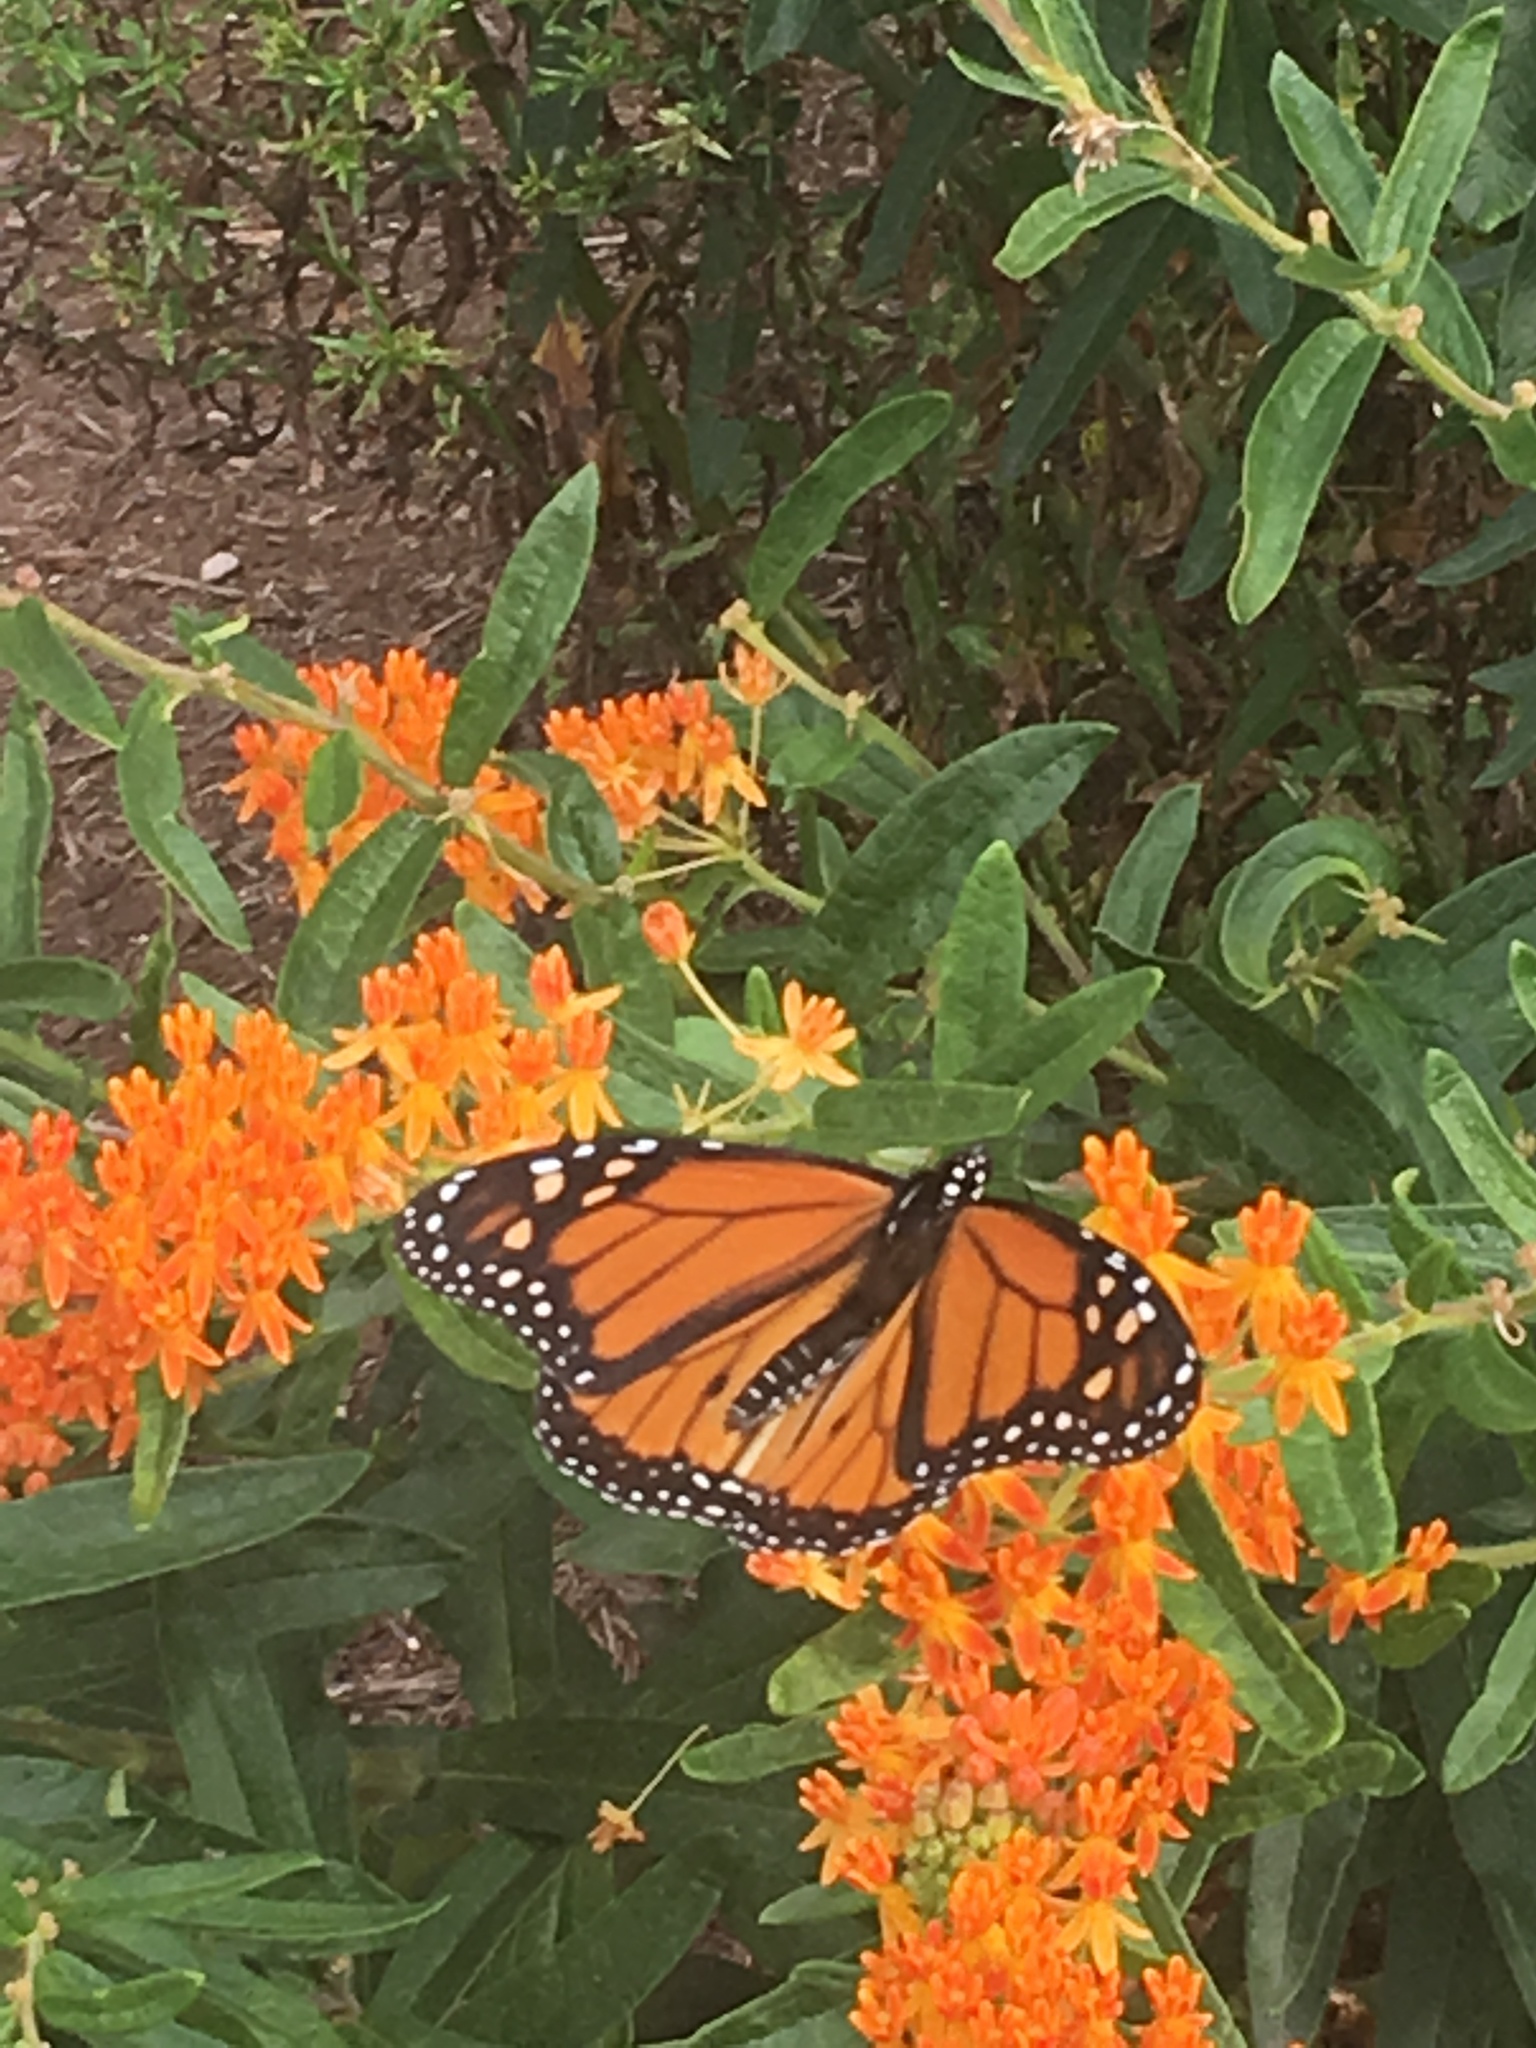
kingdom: Animalia
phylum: Arthropoda
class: Insecta
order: Lepidoptera
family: Nymphalidae
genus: Danaus
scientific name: Danaus plexippus
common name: Monarch
